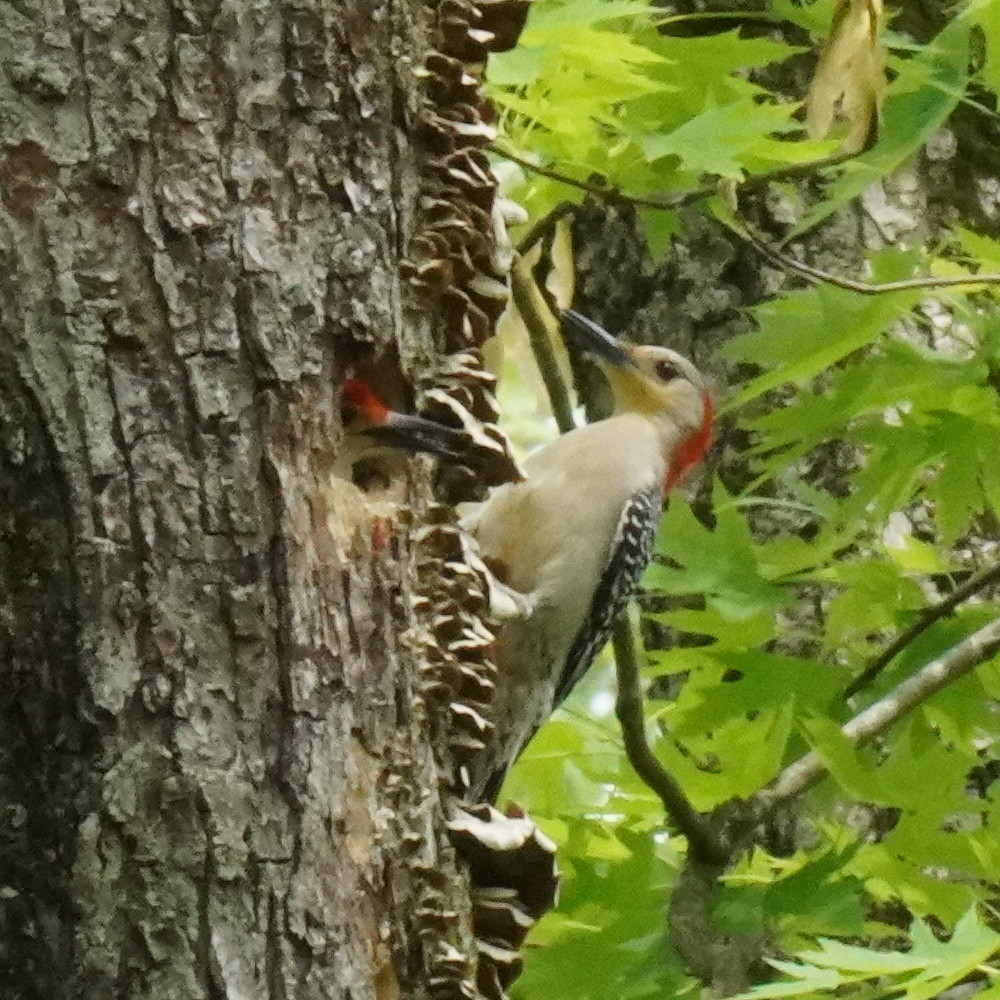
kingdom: Animalia
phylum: Chordata
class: Aves
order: Piciformes
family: Picidae
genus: Melanerpes
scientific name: Melanerpes carolinus
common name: Red-bellied woodpecker
